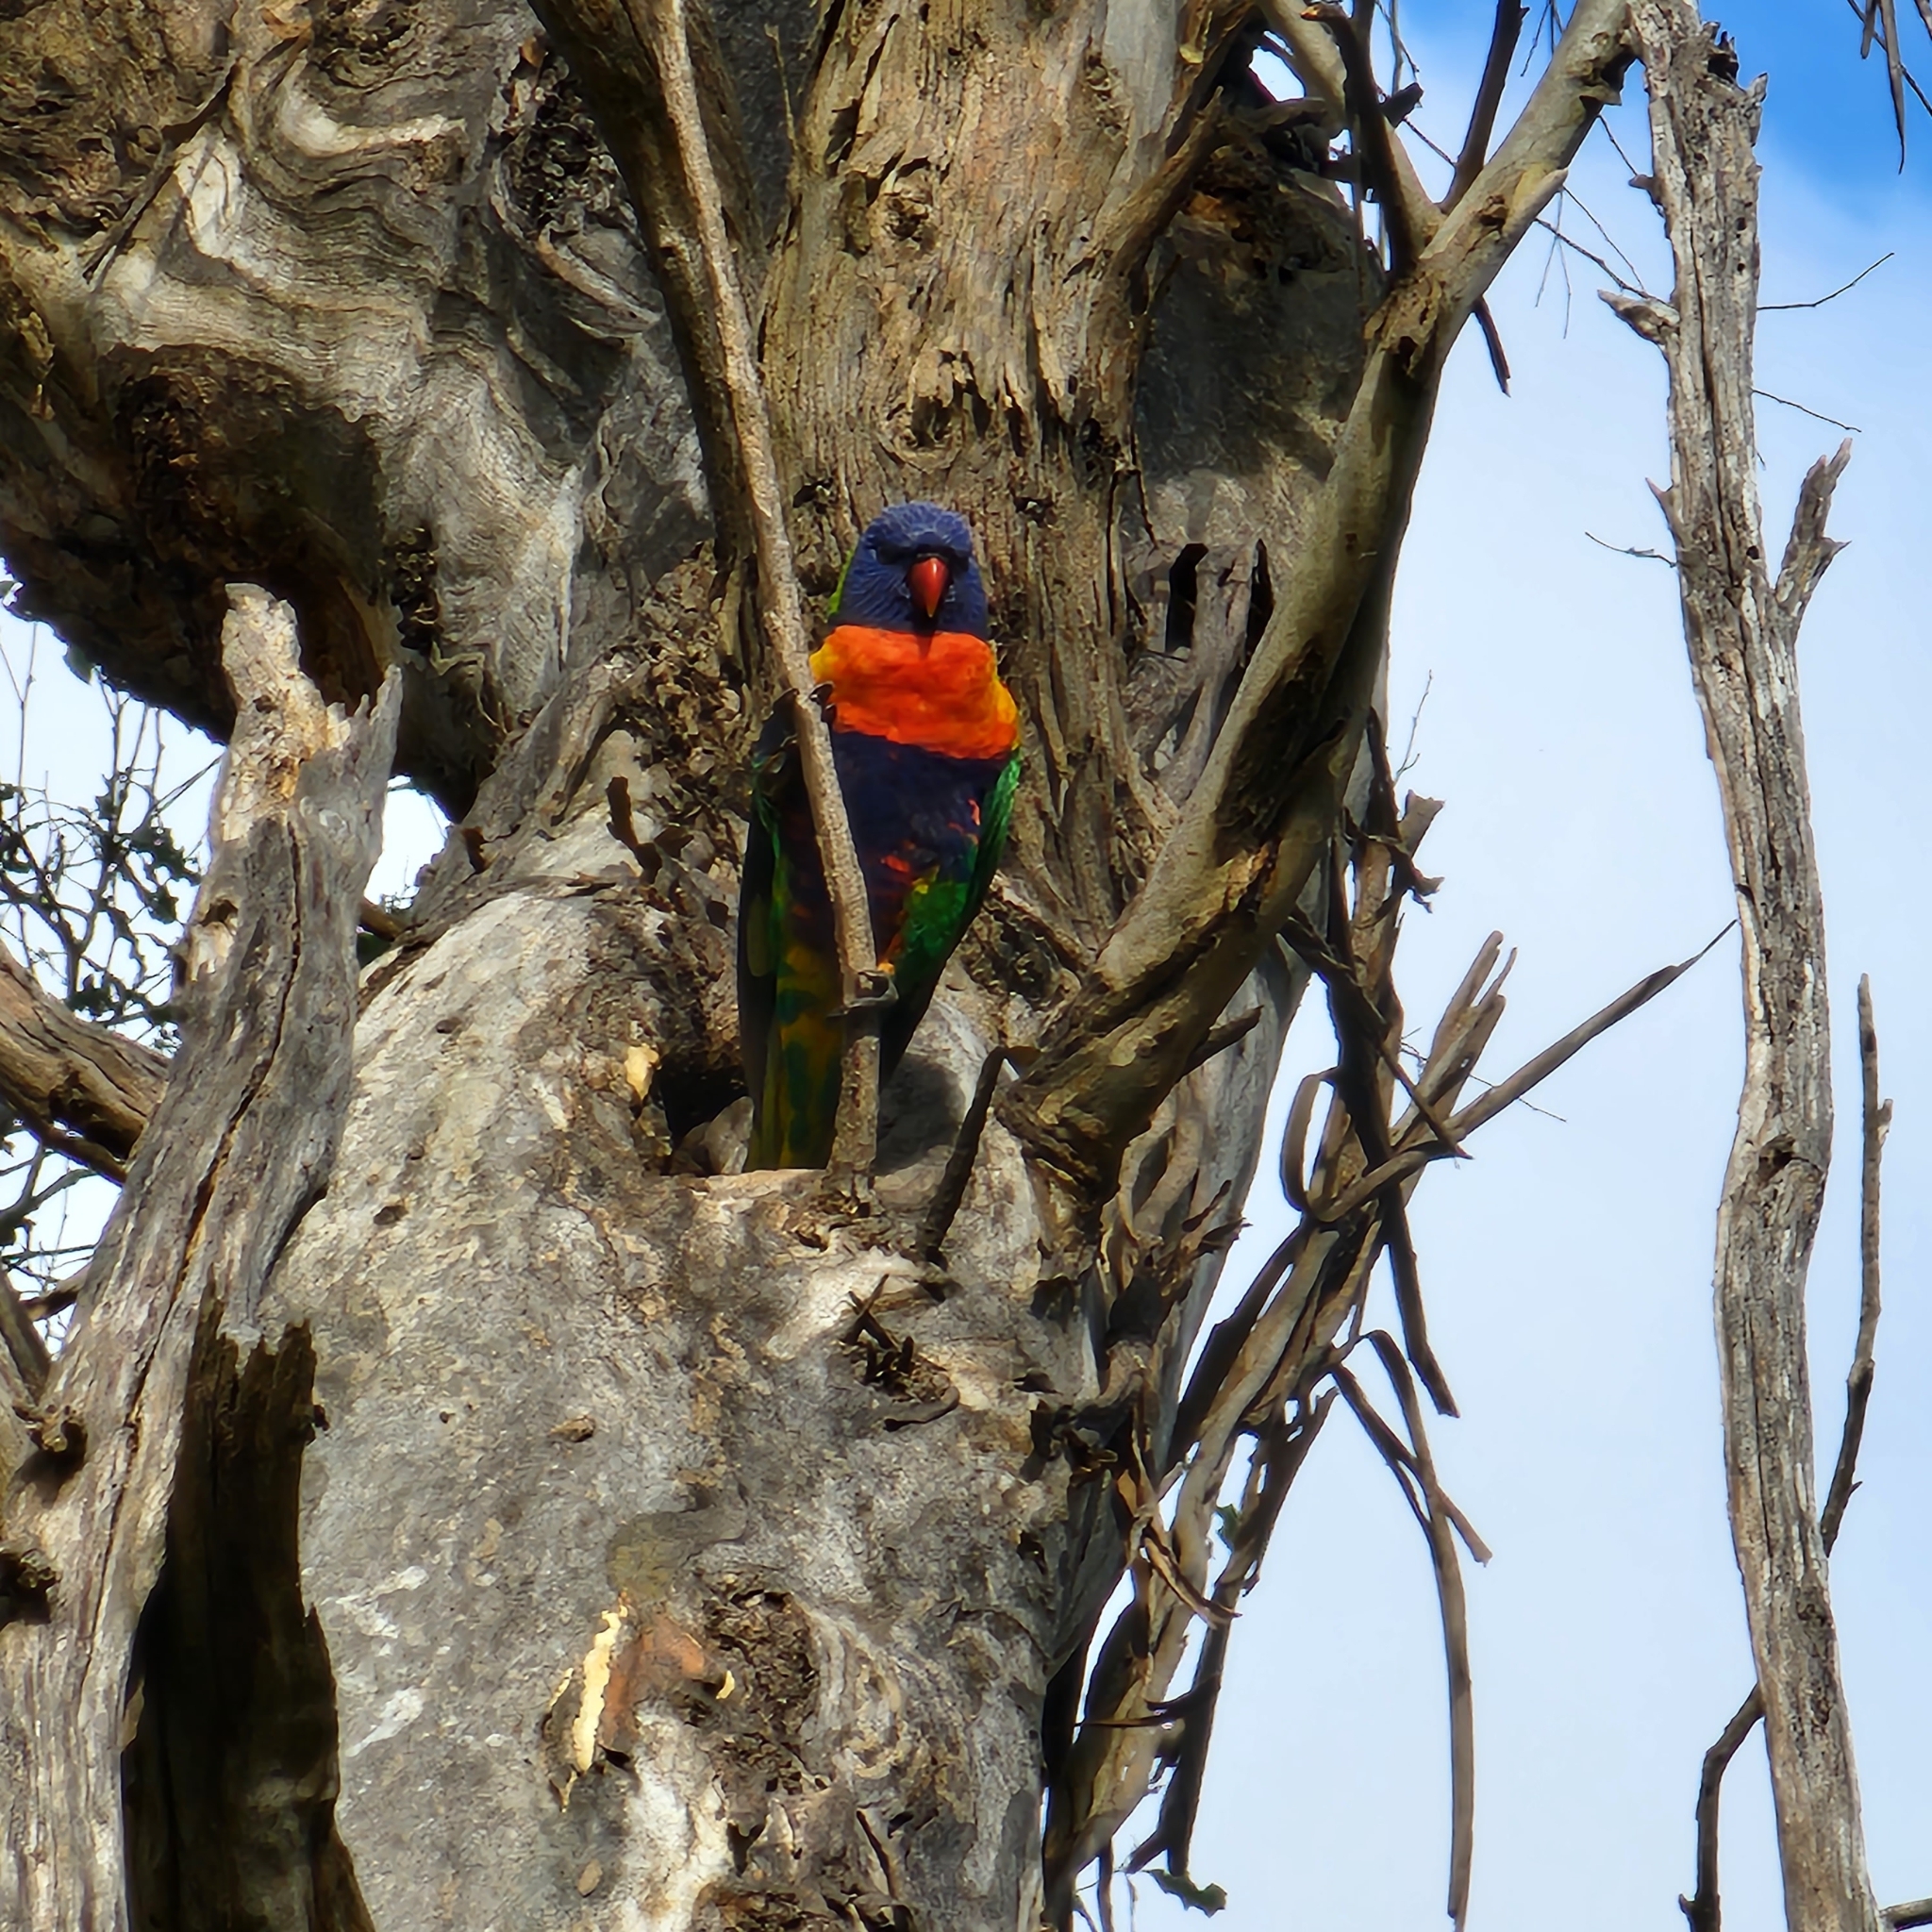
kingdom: Animalia
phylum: Chordata
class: Aves
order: Psittaciformes
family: Psittacidae
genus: Trichoglossus
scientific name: Trichoglossus haematodus
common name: Coconut lorikeet
